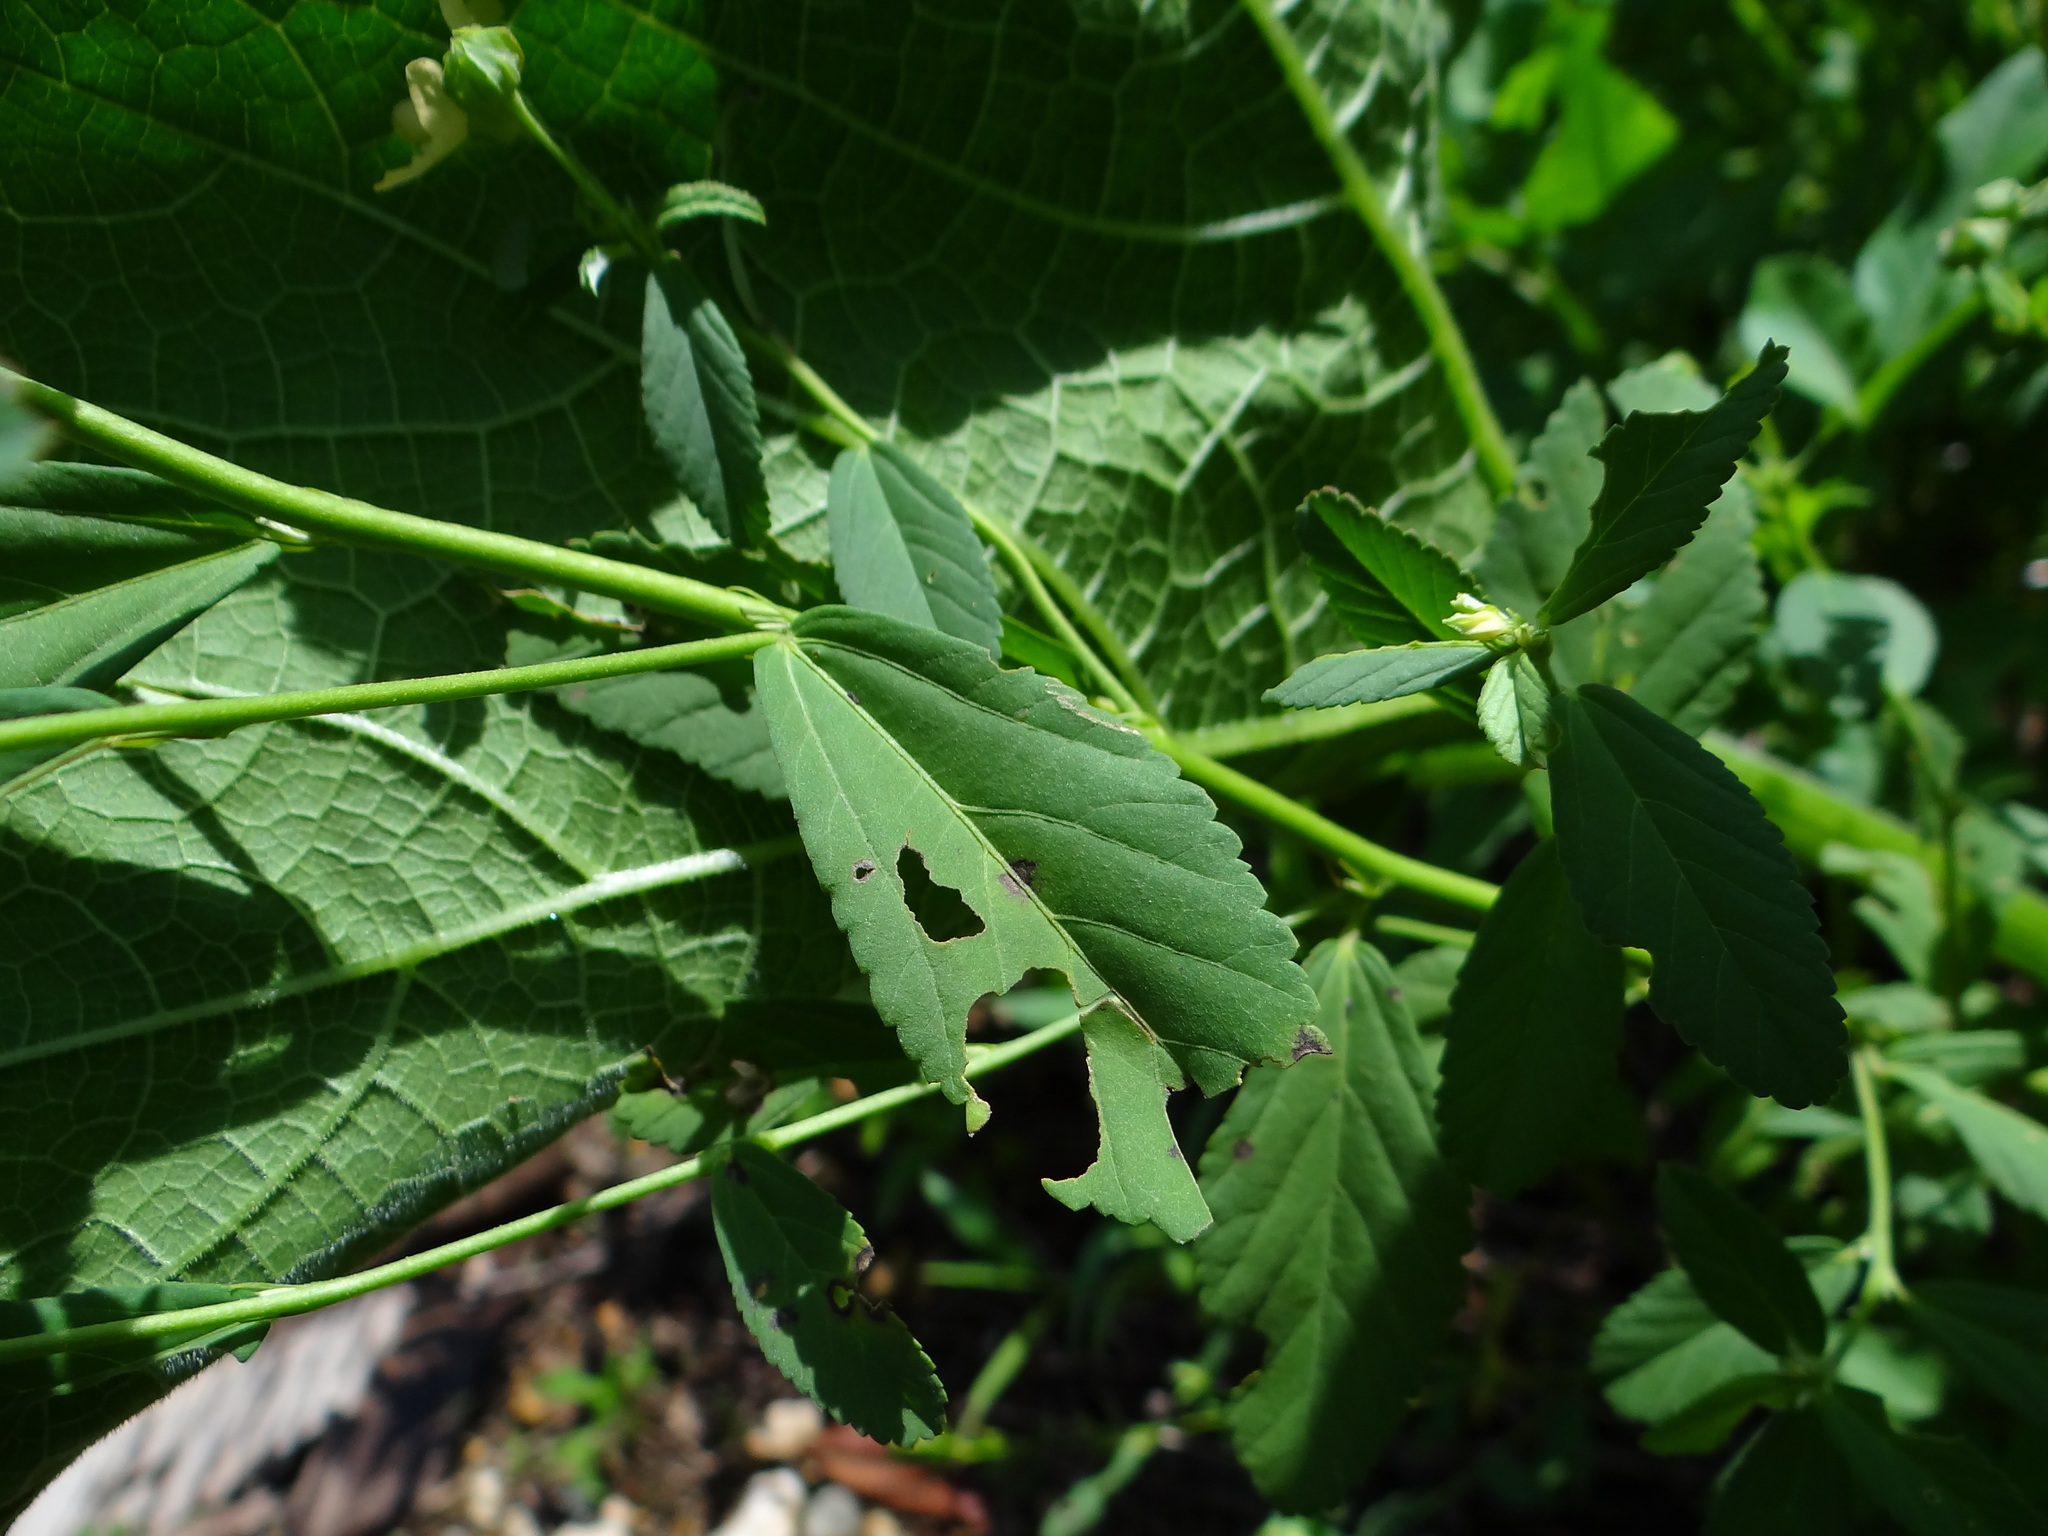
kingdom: Plantae
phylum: Tracheophyta
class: Magnoliopsida
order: Malvales
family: Malvaceae
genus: Sida
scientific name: Sida rhombifolia
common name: Queensland-hemp
